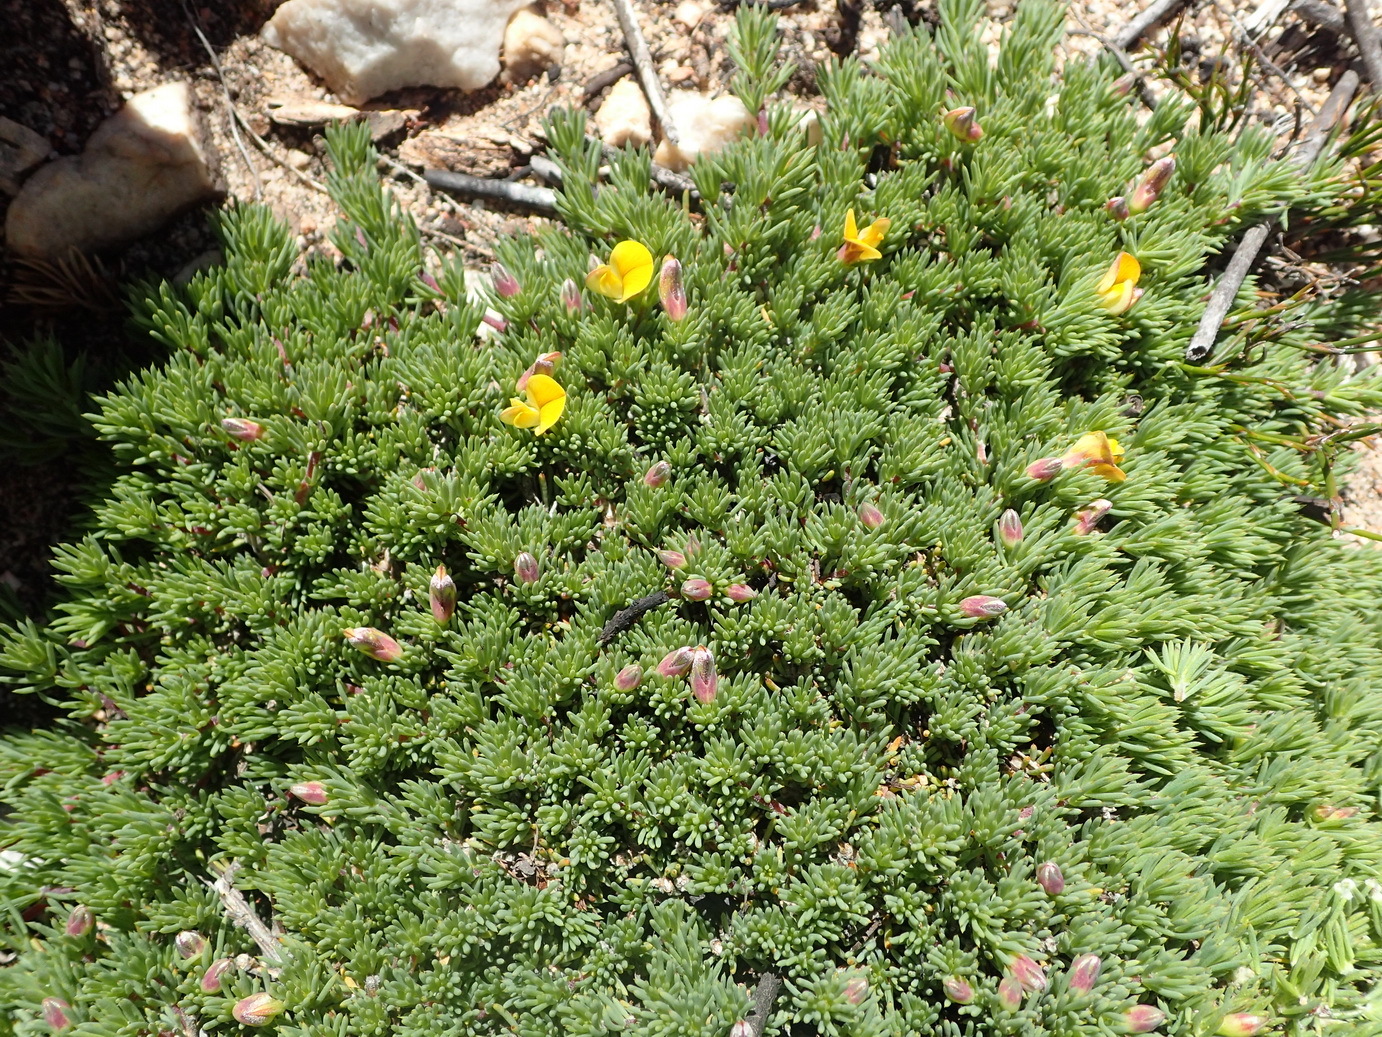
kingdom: Plantae
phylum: Tracheophyta
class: Magnoliopsida
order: Fabales
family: Fabaceae
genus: Aspalathus
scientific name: Aspalathus rigidifolia
